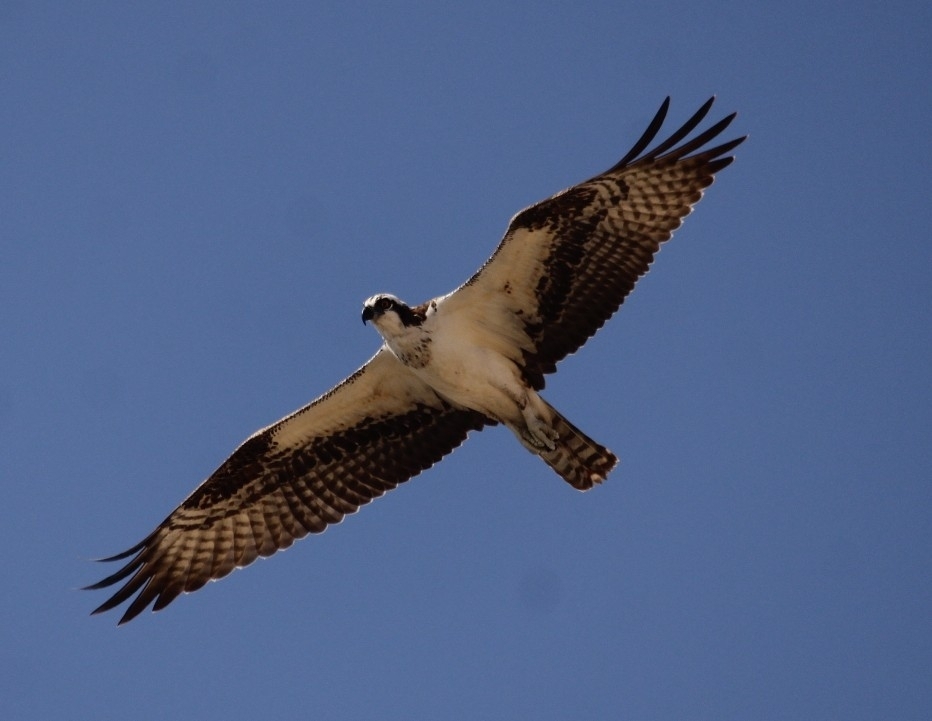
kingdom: Animalia
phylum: Chordata
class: Aves
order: Accipitriformes
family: Pandionidae
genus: Pandion
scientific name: Pandion haliaetus
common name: Osprey
